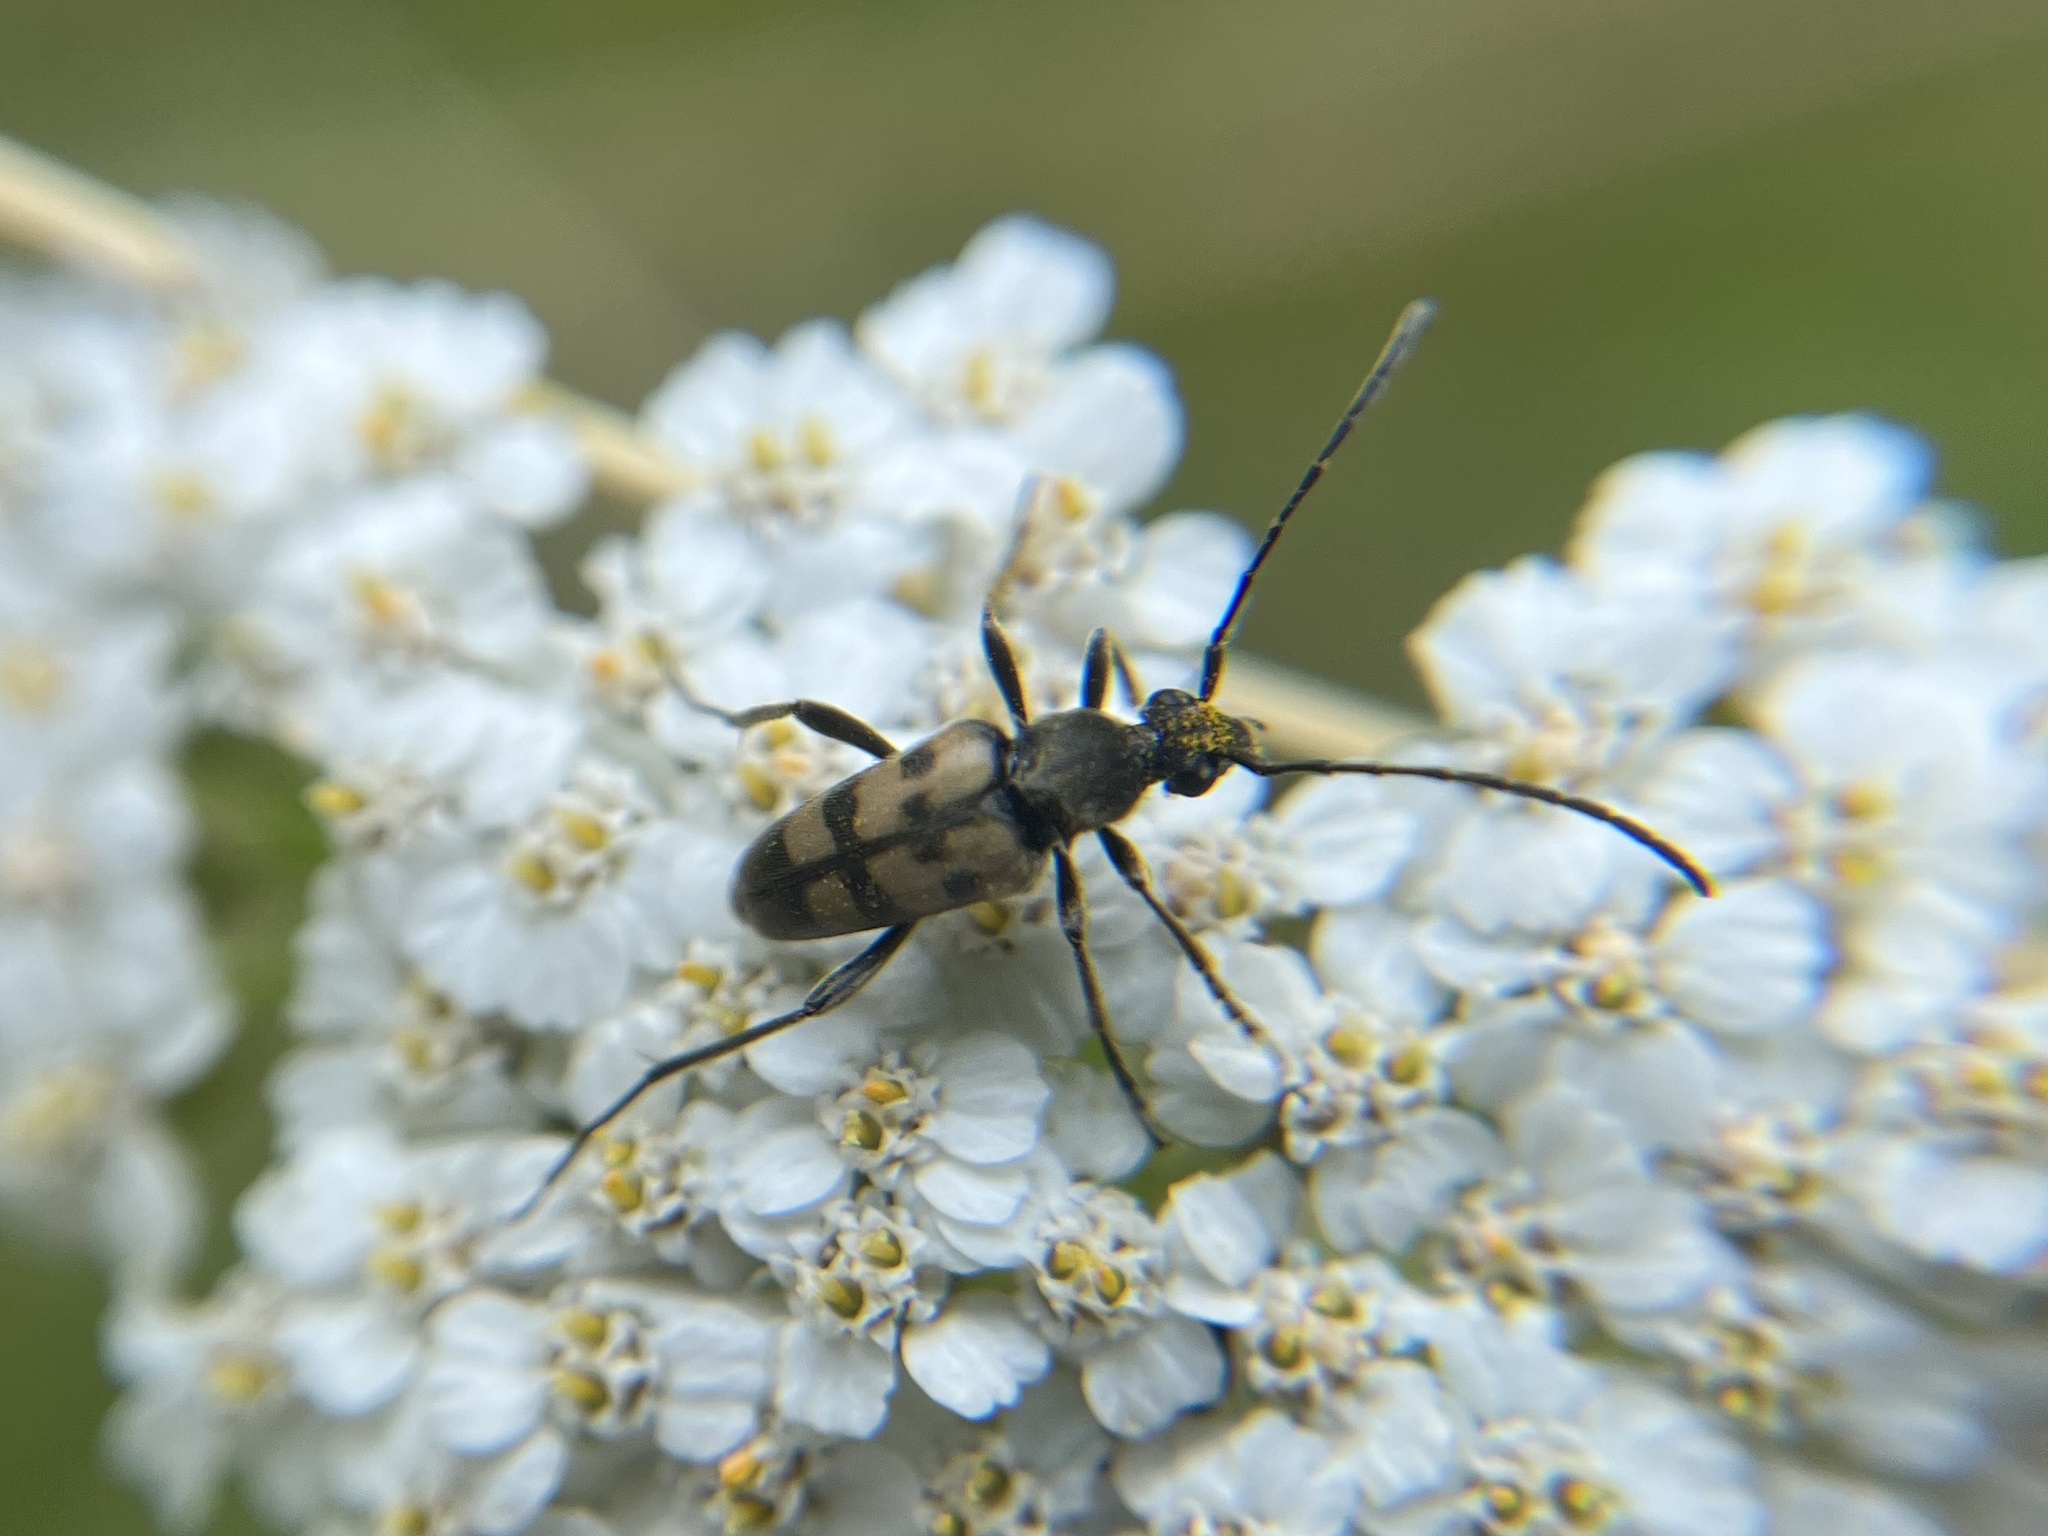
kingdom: Animalia
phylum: Arthropoda
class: Insecta
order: Coleoptera
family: Cerambycidae
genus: Pachytodes
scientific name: Pachytodes
